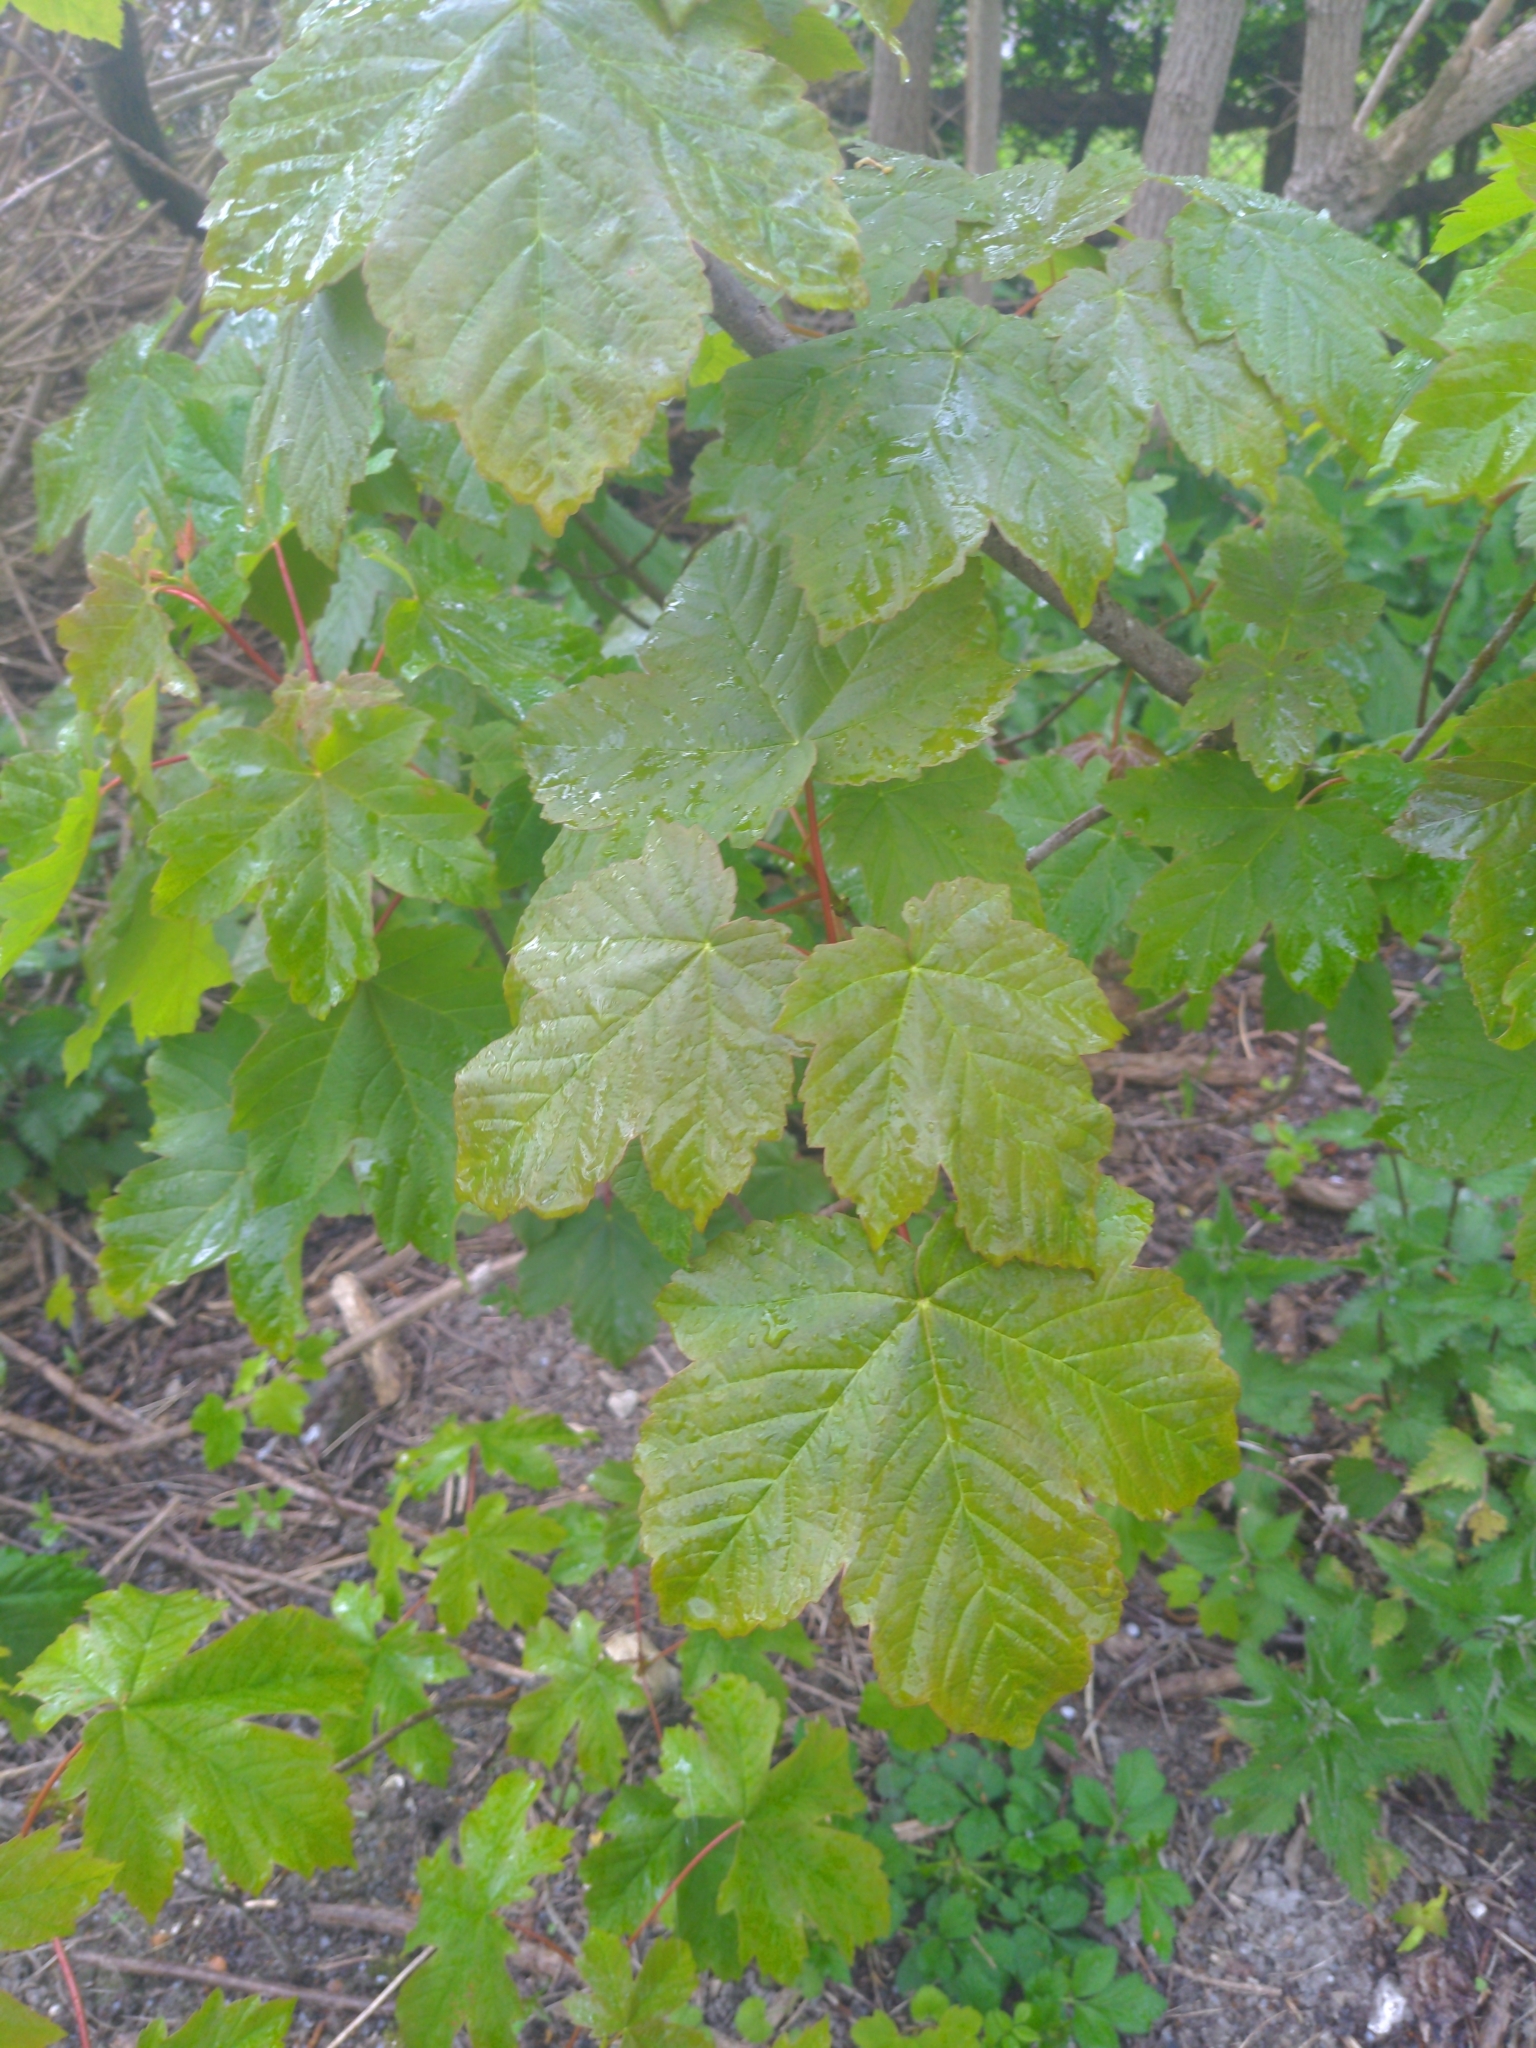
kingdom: Plantae
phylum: Tracheophyta
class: Magnoliopsida
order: Sapindales
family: Sapindaceae
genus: Acer
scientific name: Acer pseudoplatanus
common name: Sycamore
